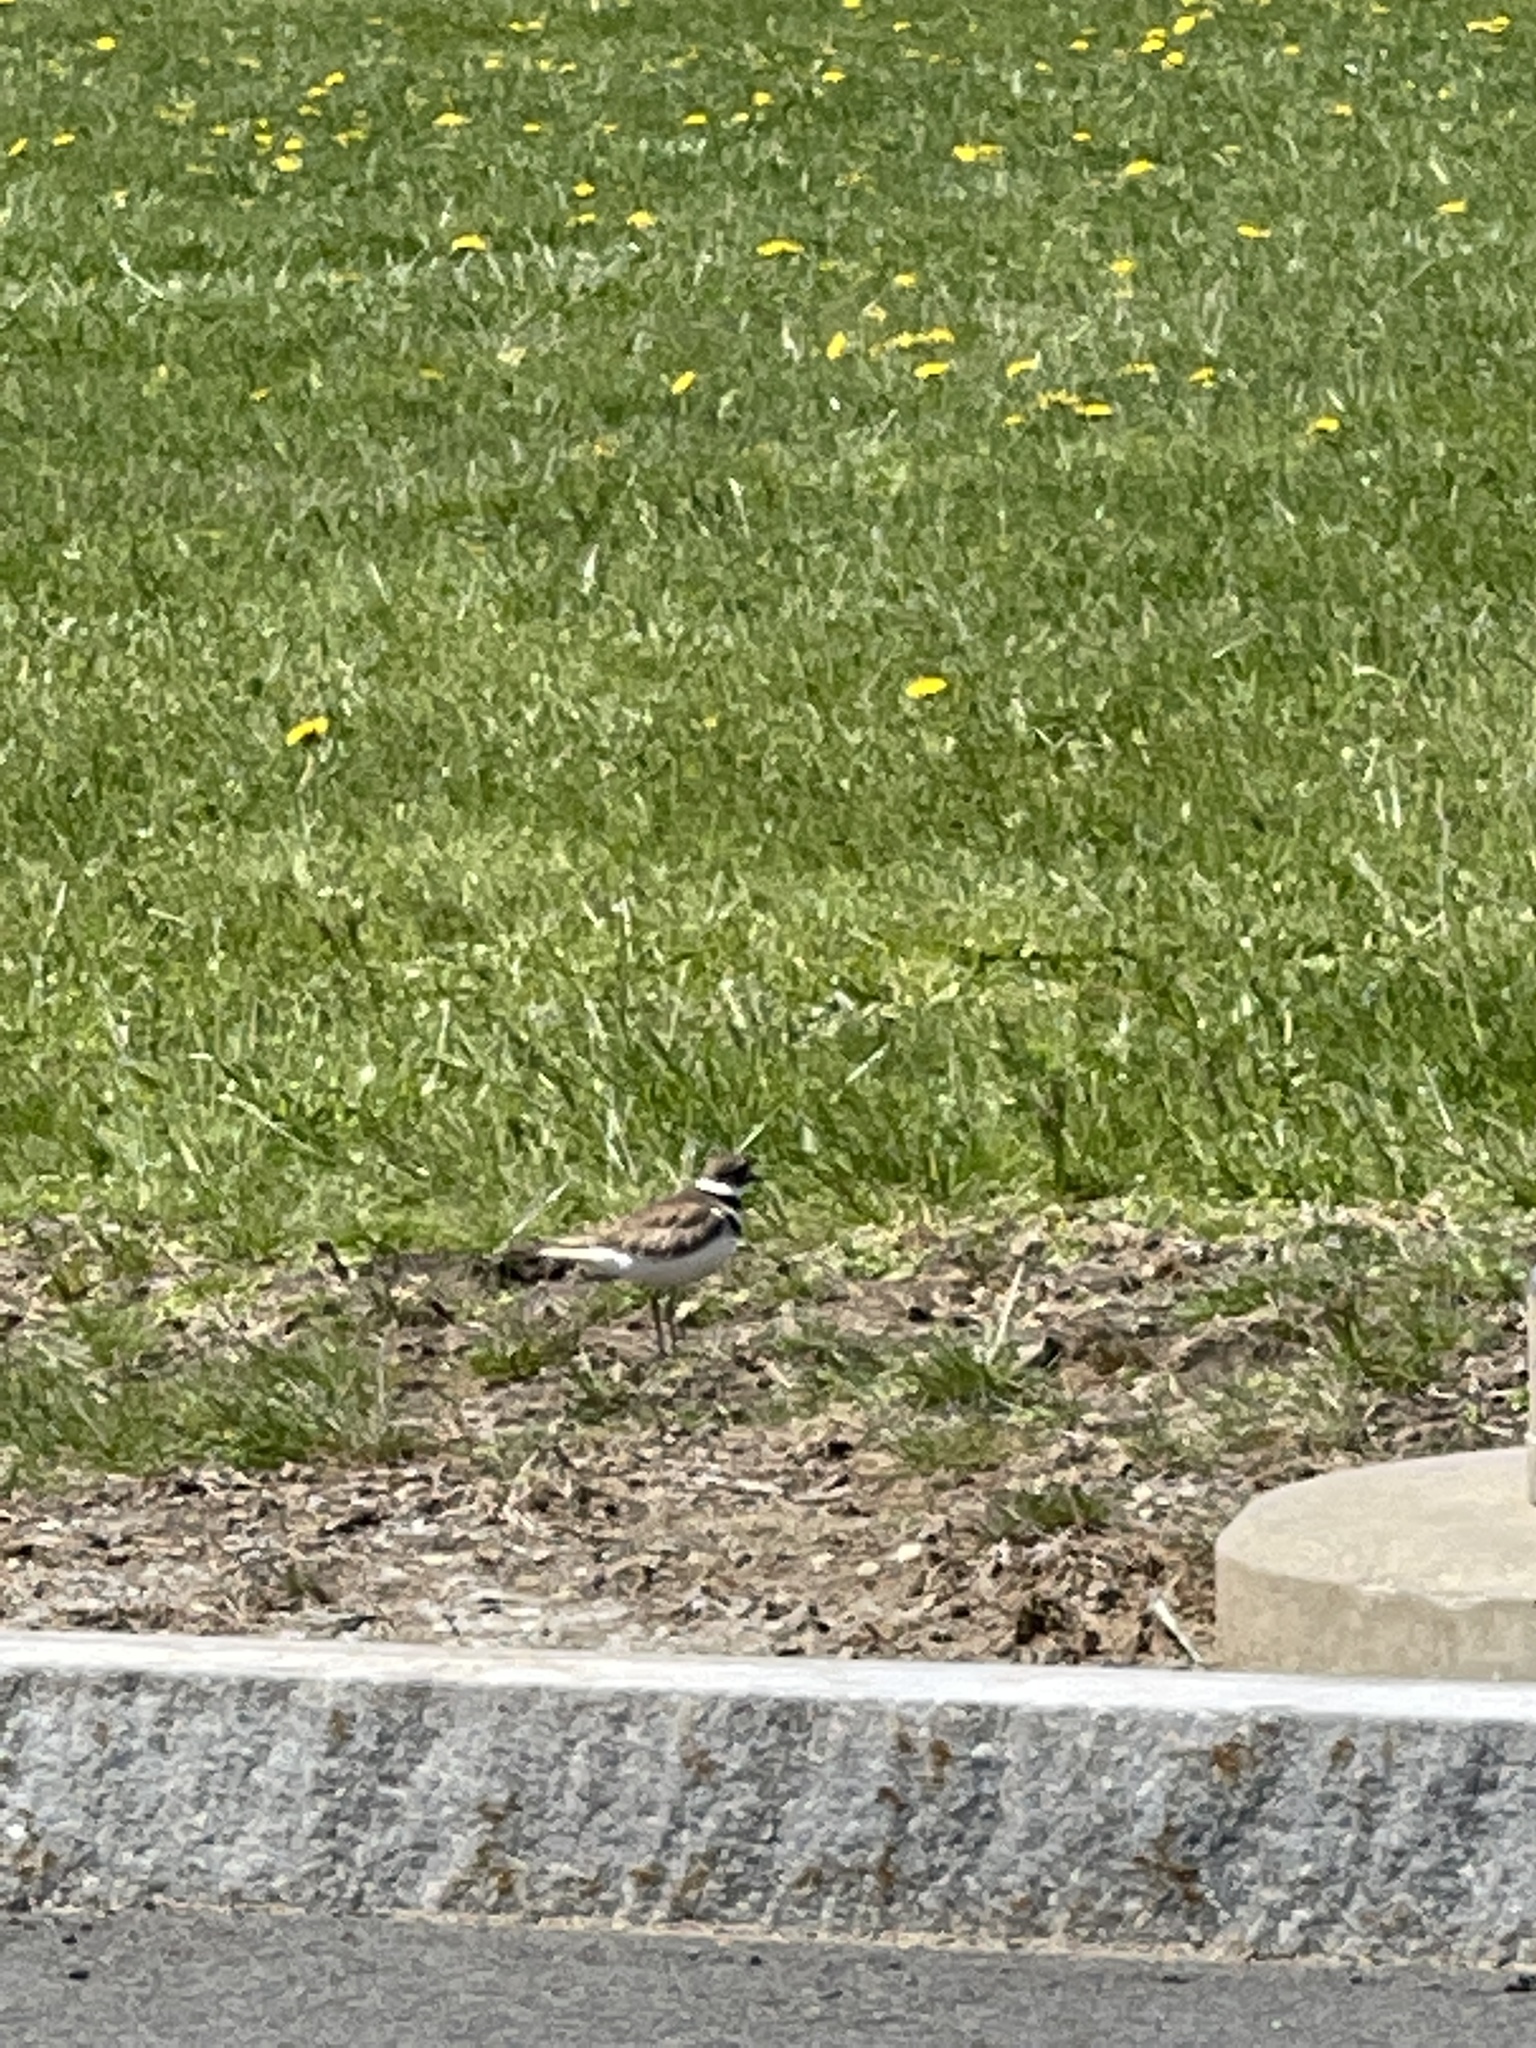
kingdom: Animalia
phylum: Chordata
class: Aves
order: Charadriiformes
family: Charadriidae
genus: Charadrius
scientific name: Charadrius vociferus
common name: Killdeer
